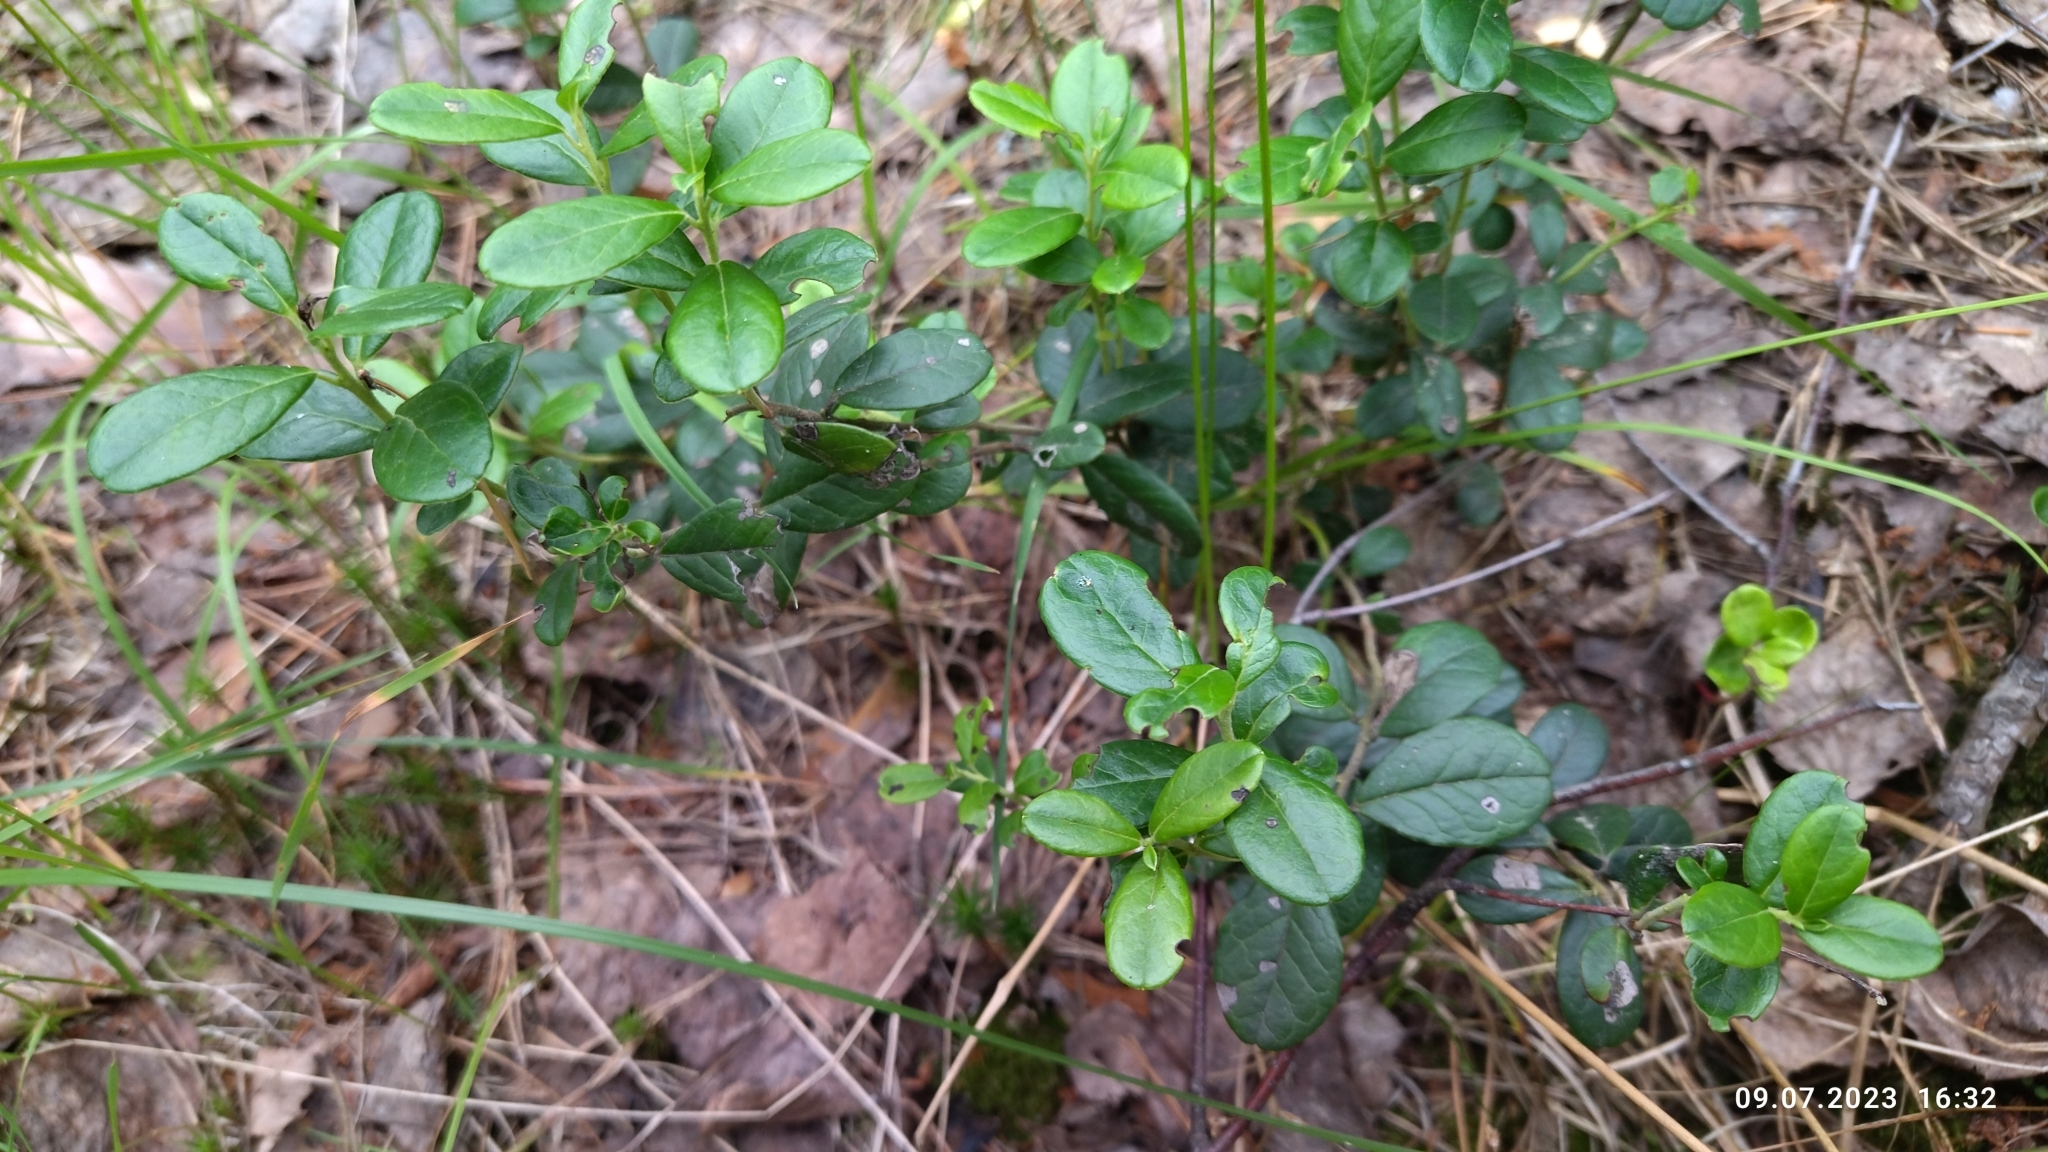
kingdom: Plantae
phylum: Tracheophyta
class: Magnoliopsida
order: Ericales
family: Ericaceae
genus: Vaccinium
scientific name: Vaccinium vitis-idaea
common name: Cowberry
